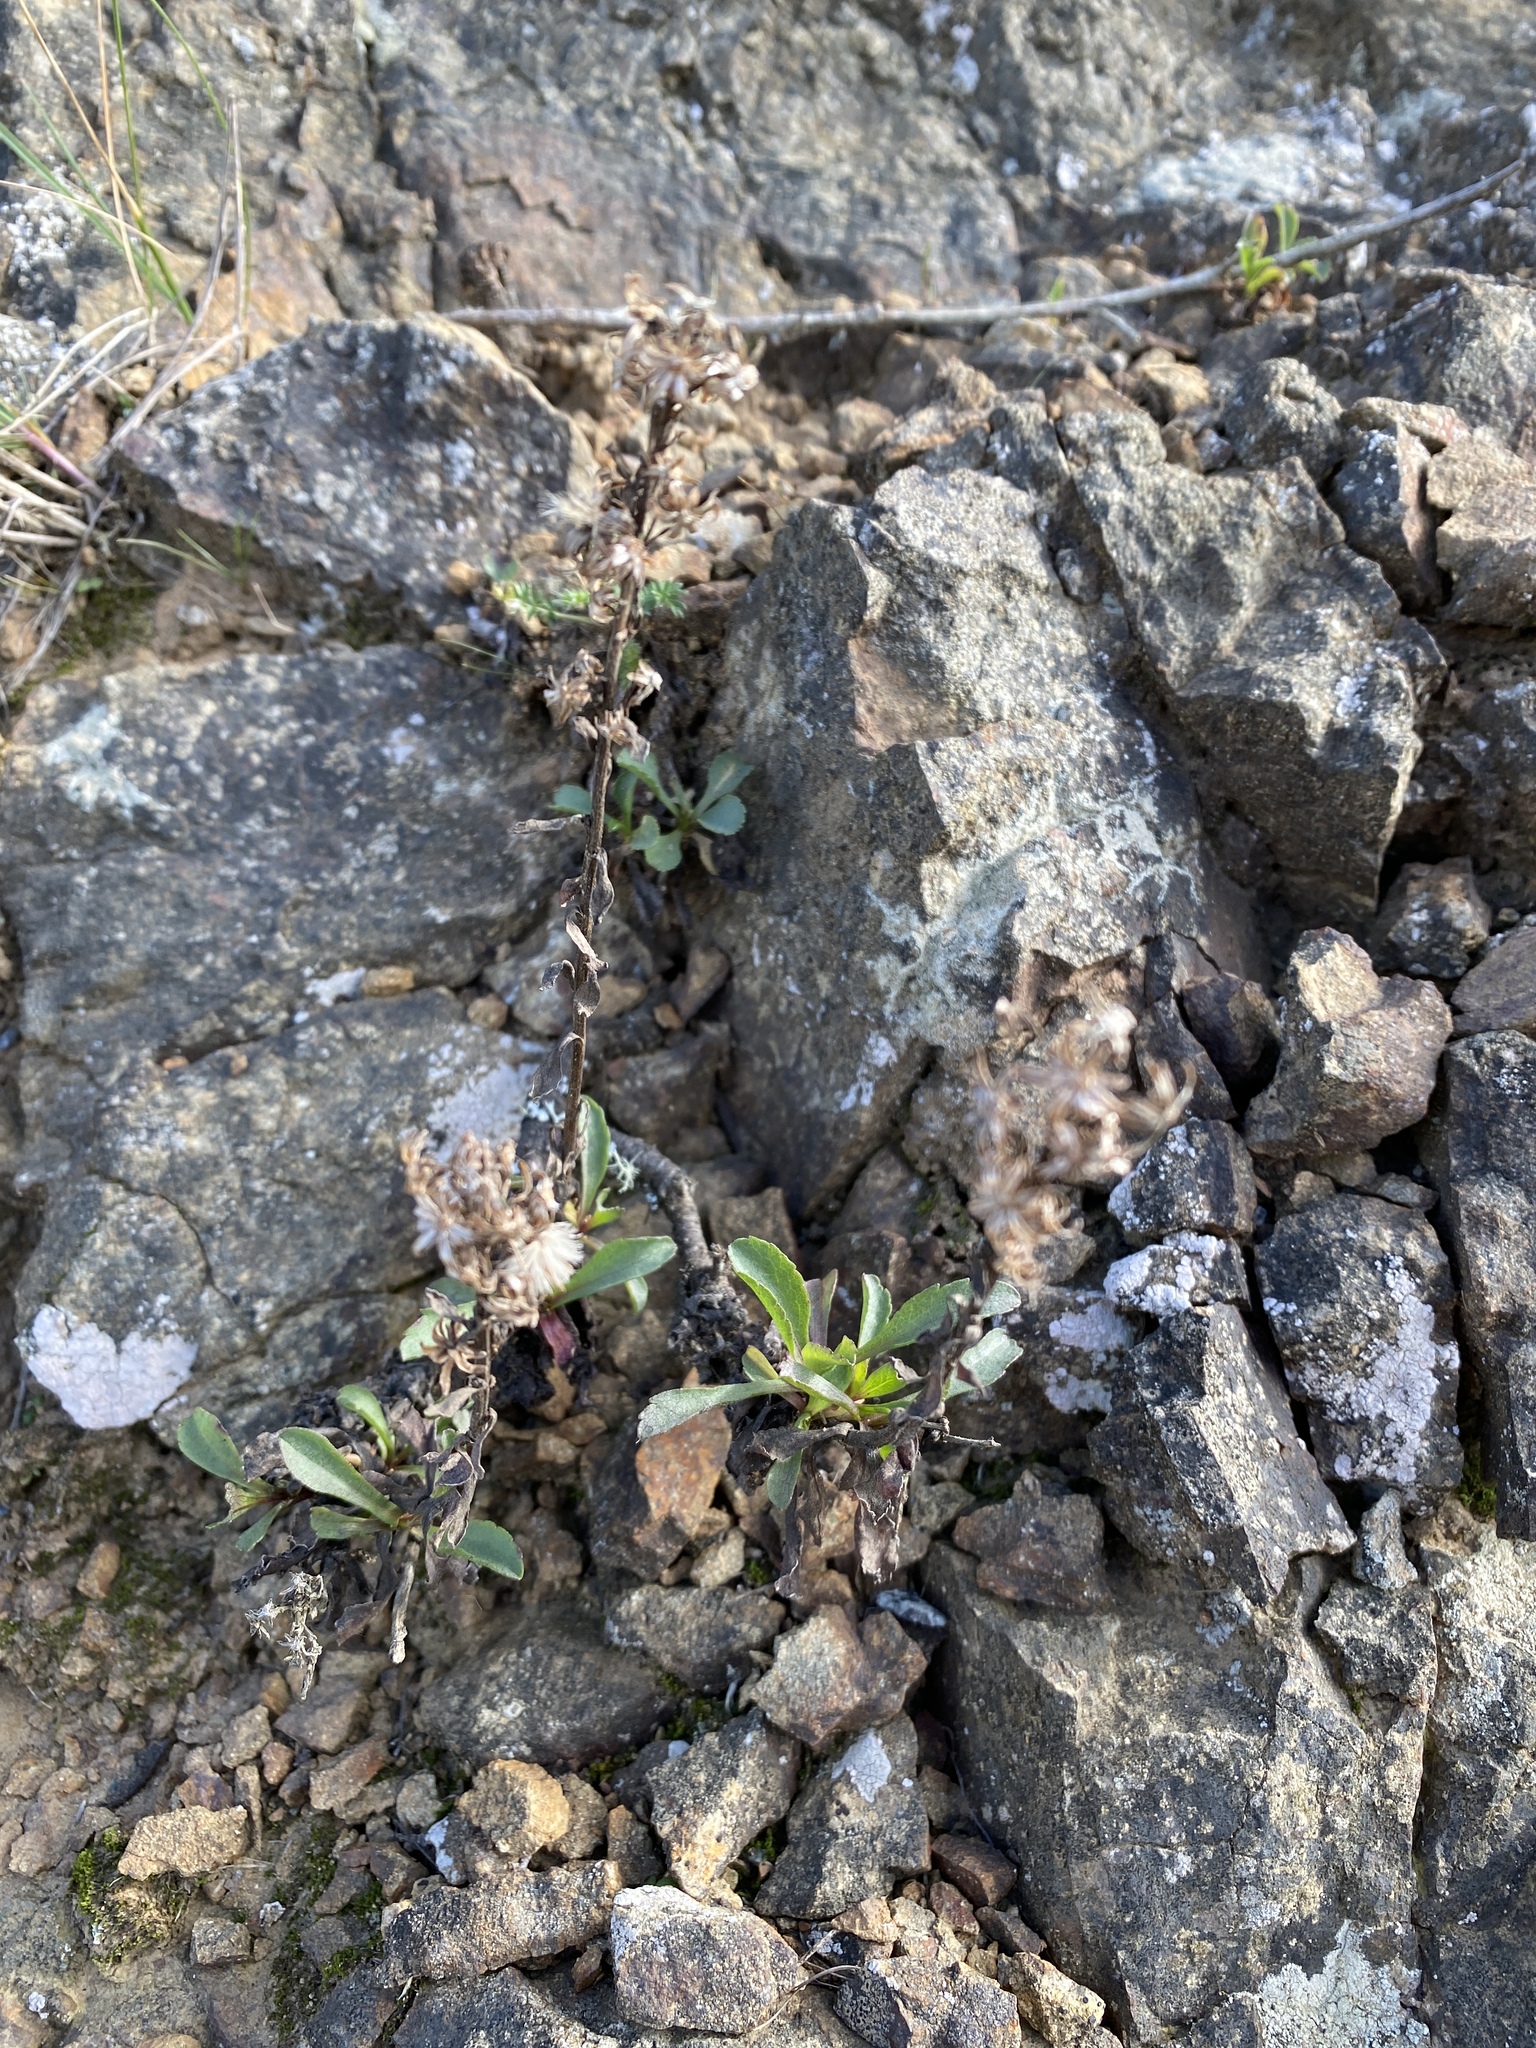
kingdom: Plantae
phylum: Tracheophyta
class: Magnoliopsida
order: Asterales
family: Asteraceae
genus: Solidago
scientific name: Solidago spathulata
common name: Coast goldenrod
